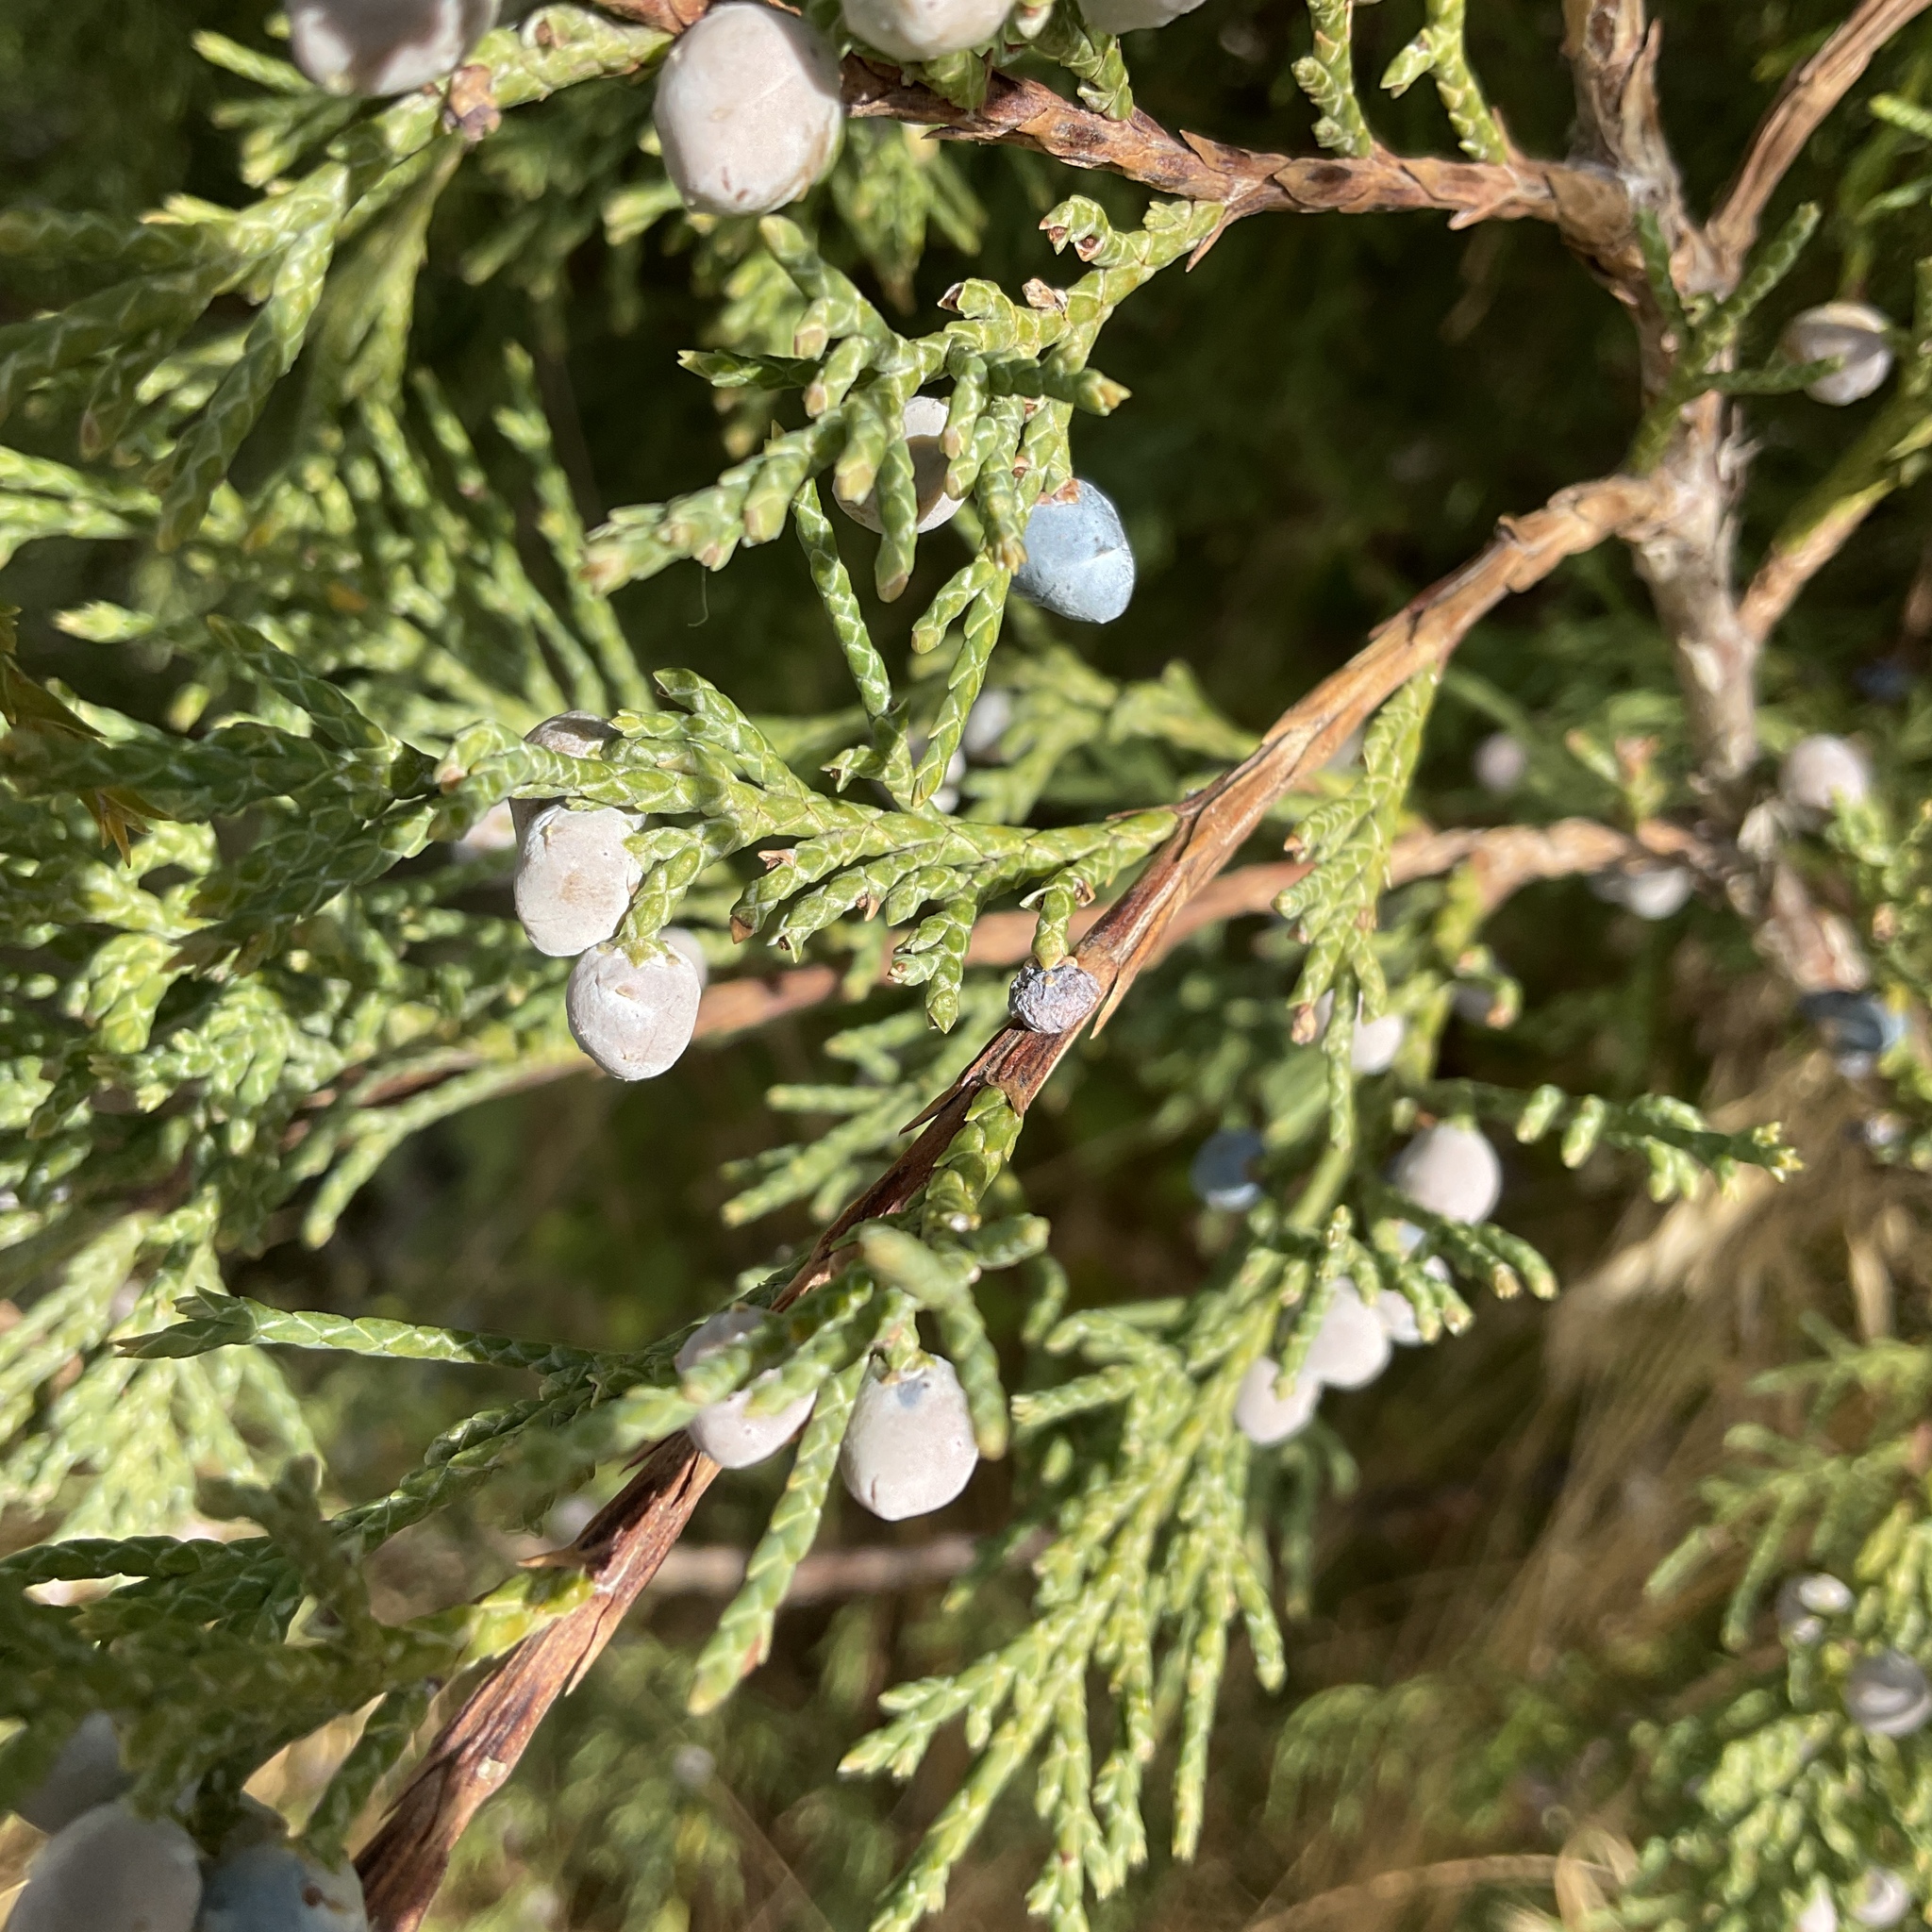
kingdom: Plantae
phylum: Tracheophyta
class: Pinopsida
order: Pinales
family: Cupressaceae
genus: Juniperus
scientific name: Juniperus scopulorum
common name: Rocky mountain juniper
